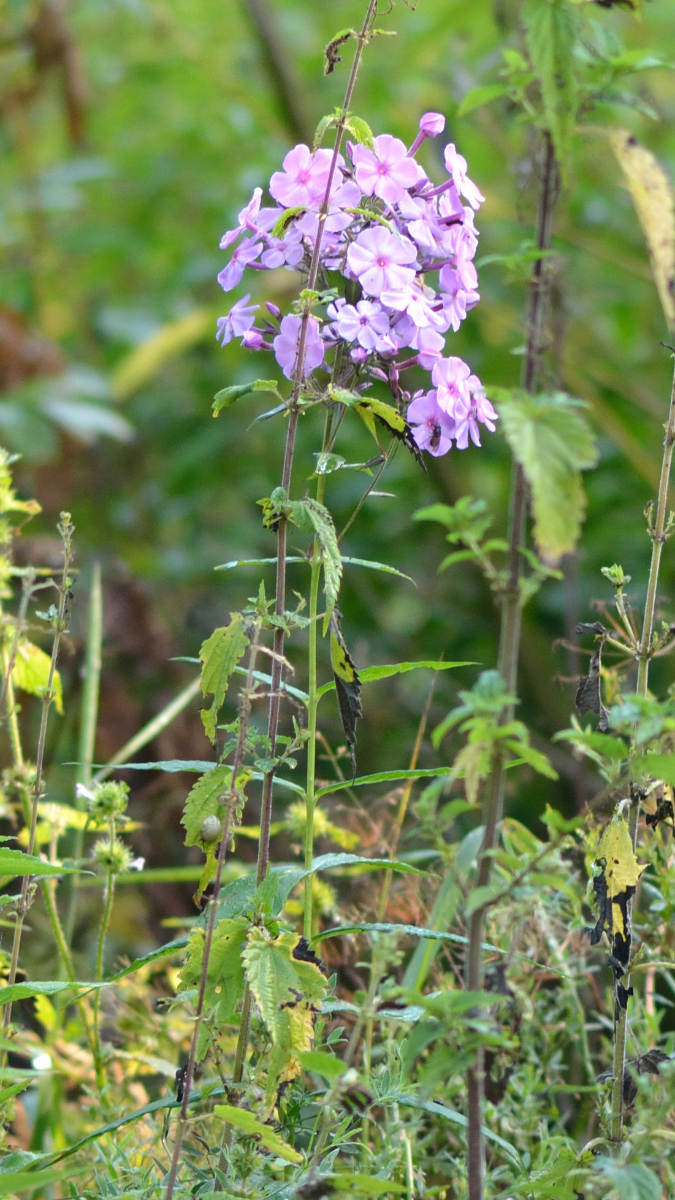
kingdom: Plantae
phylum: Tracheophyta
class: Magnoliopsida
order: Ericales
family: Polemoniaceae
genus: Phlox
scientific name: Phlox paniculata
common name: Fall phlox
